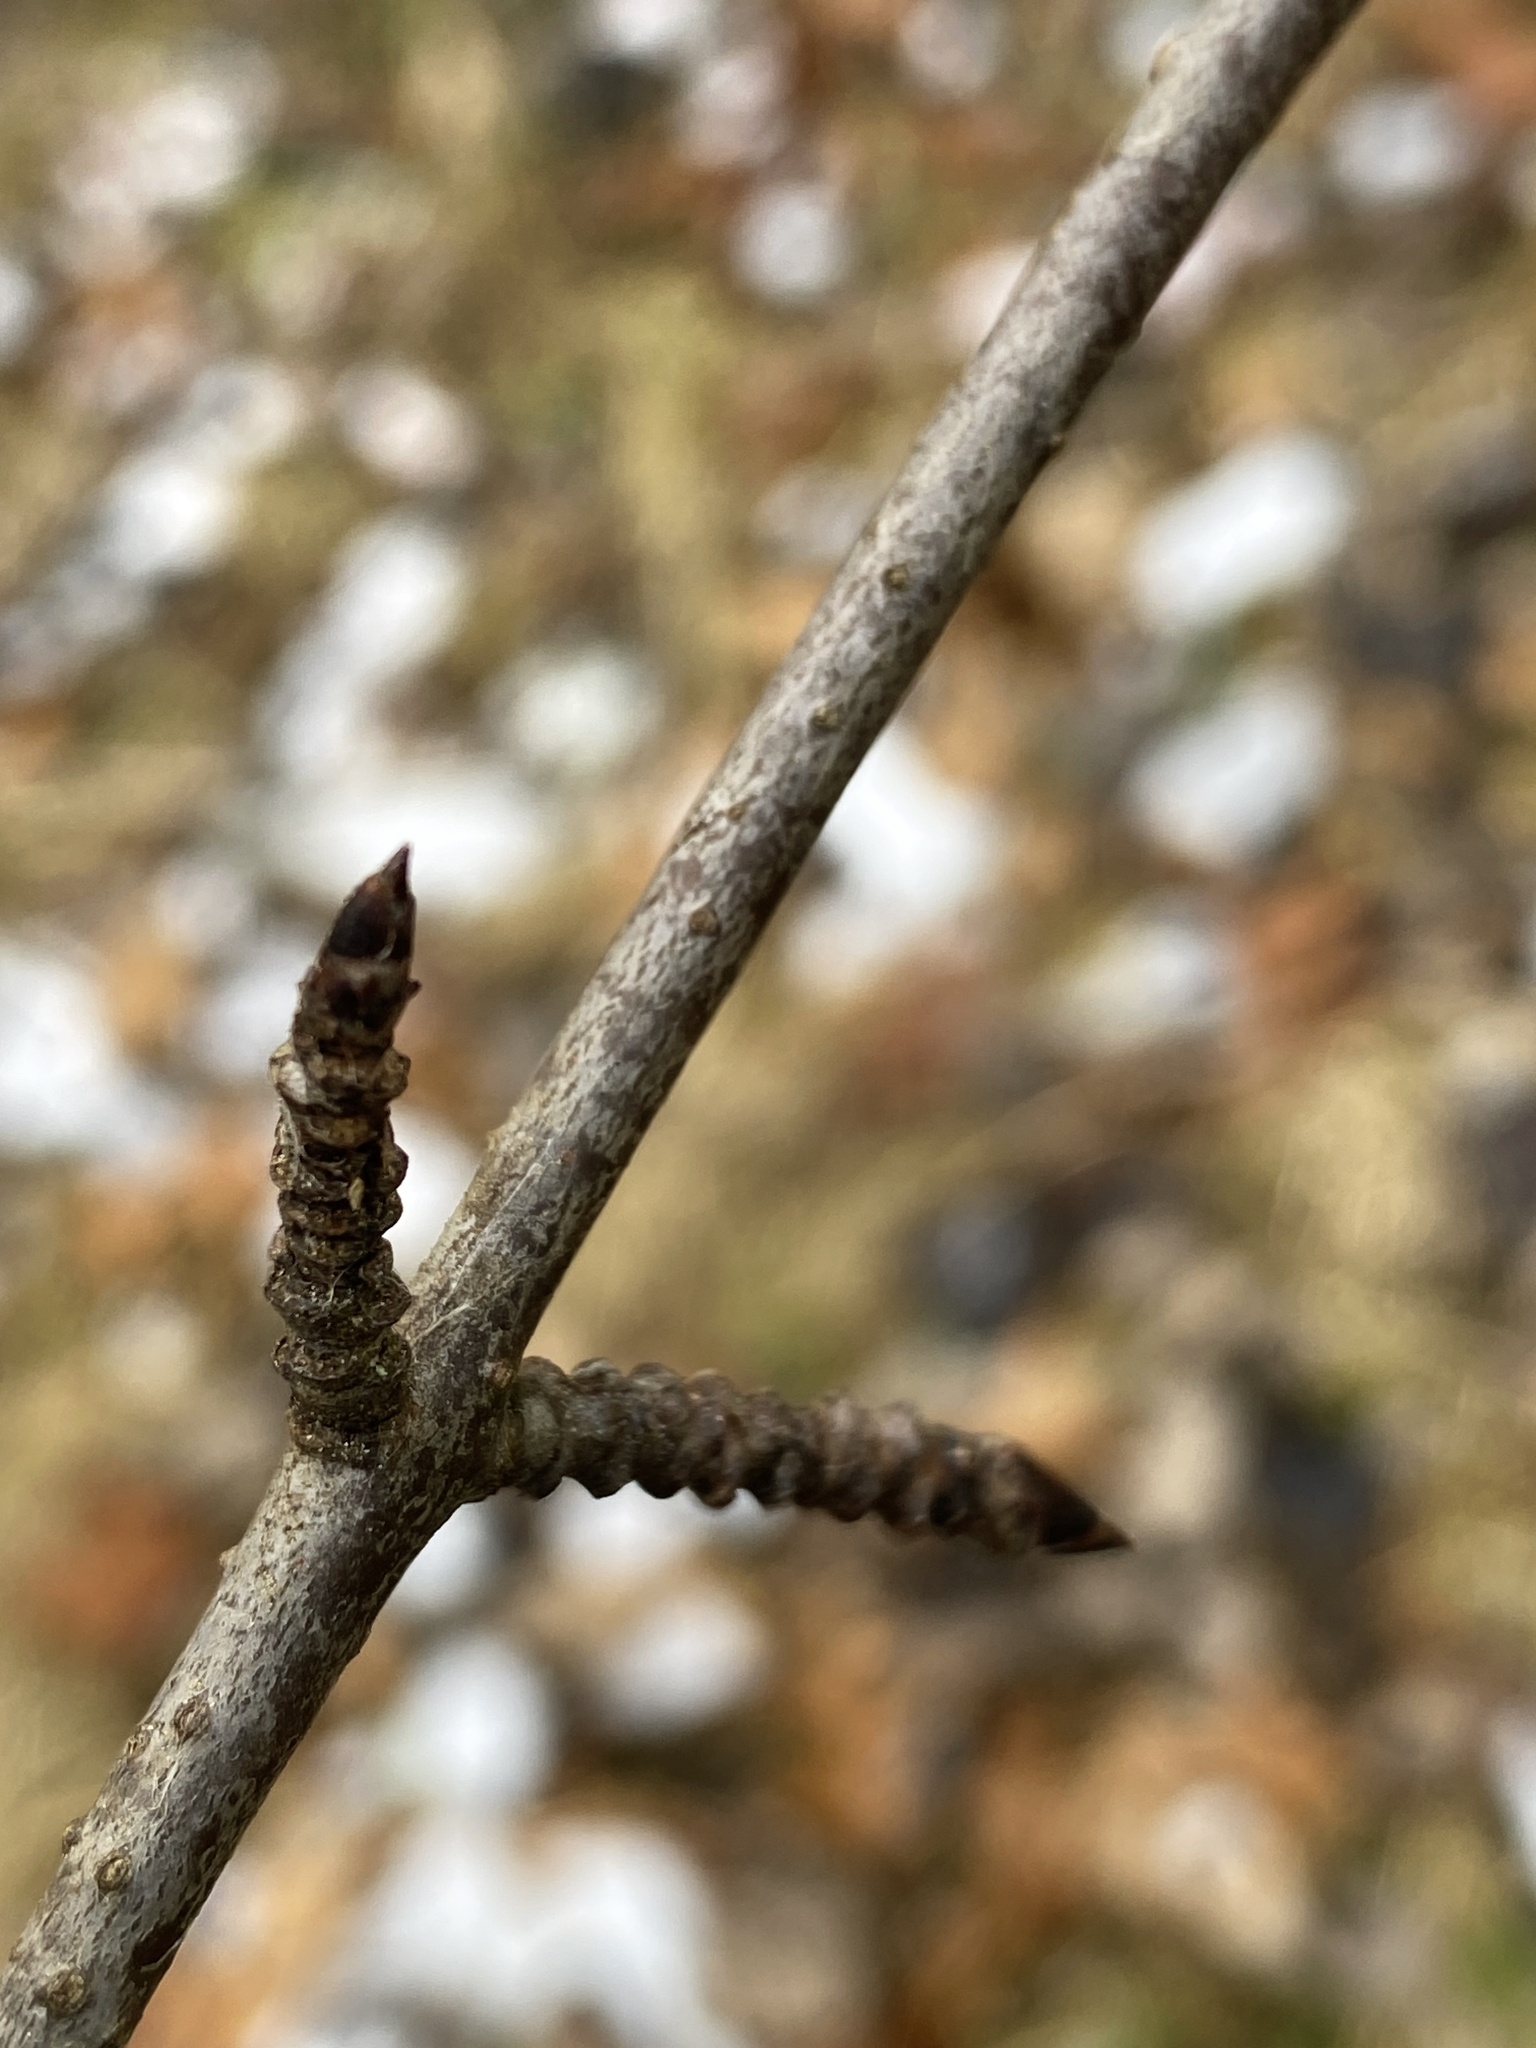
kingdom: Plantae
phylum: Tracheophyta
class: Magnoliopsida
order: Rosales
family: Rhamnaceae
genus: Rhamnus
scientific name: Rhamnus cathartica
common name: Common buckthorn
